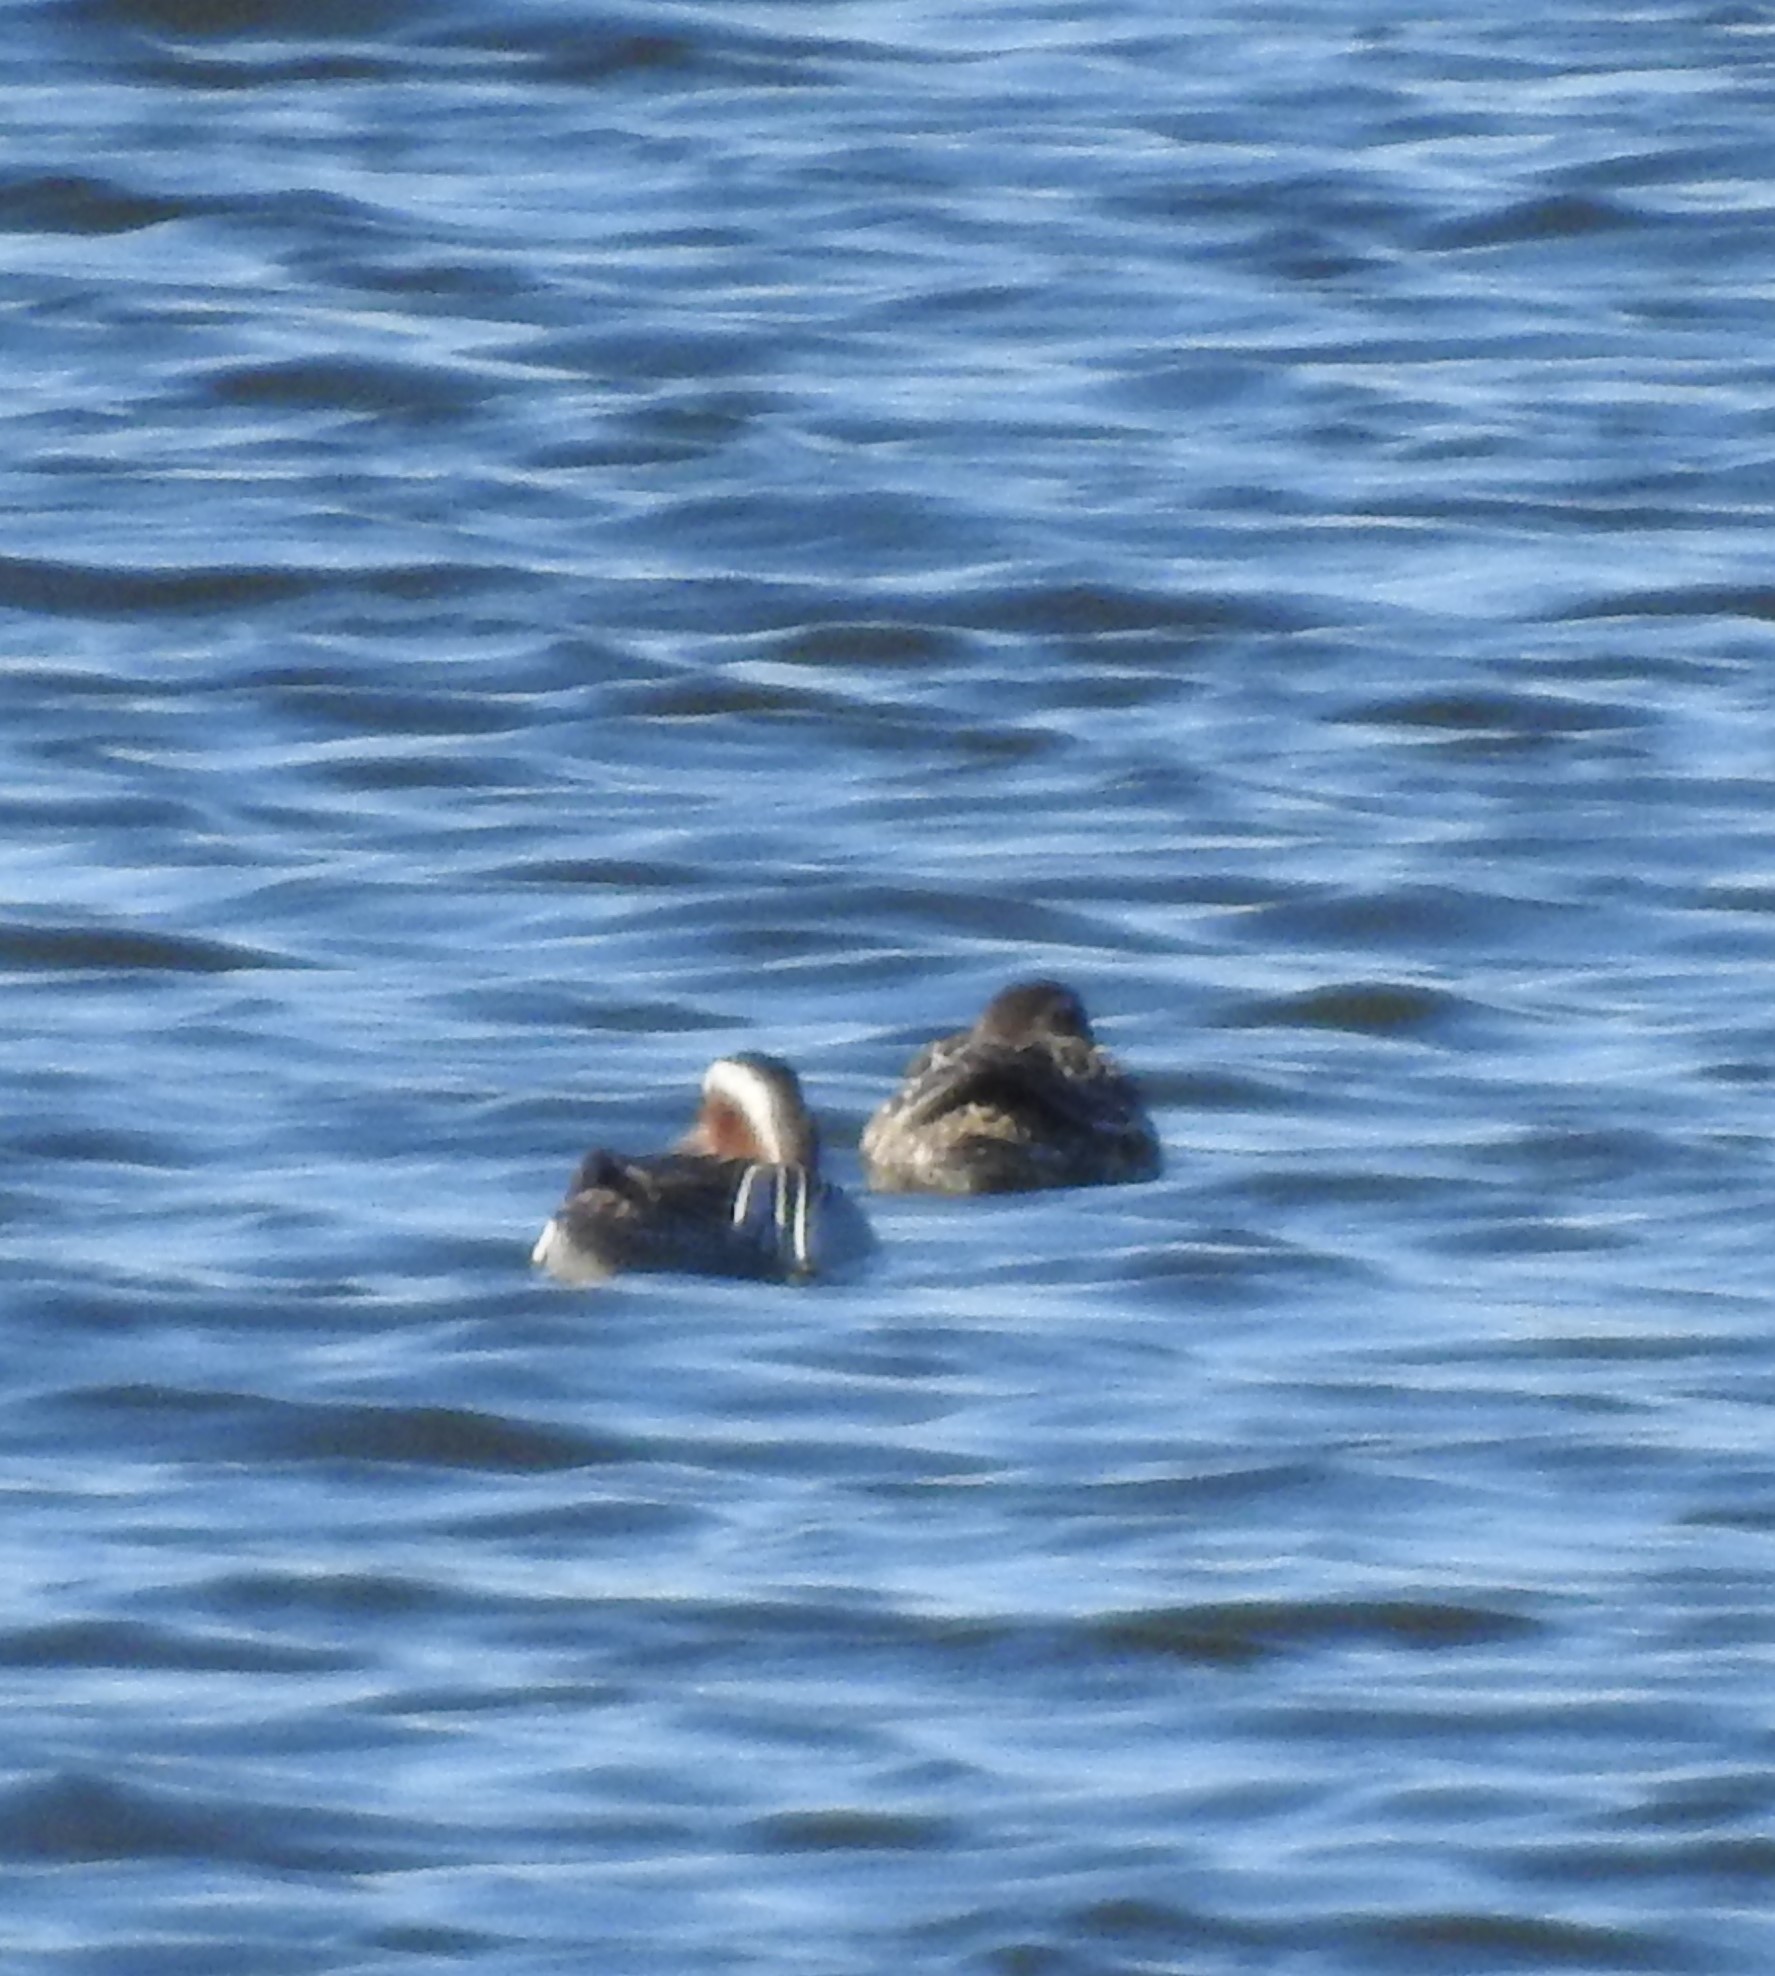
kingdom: Animalia
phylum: Chordata
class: Aves
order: Anseriformes
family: Anatidae
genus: Spatula
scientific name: Spatula querquedula
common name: Garganey
